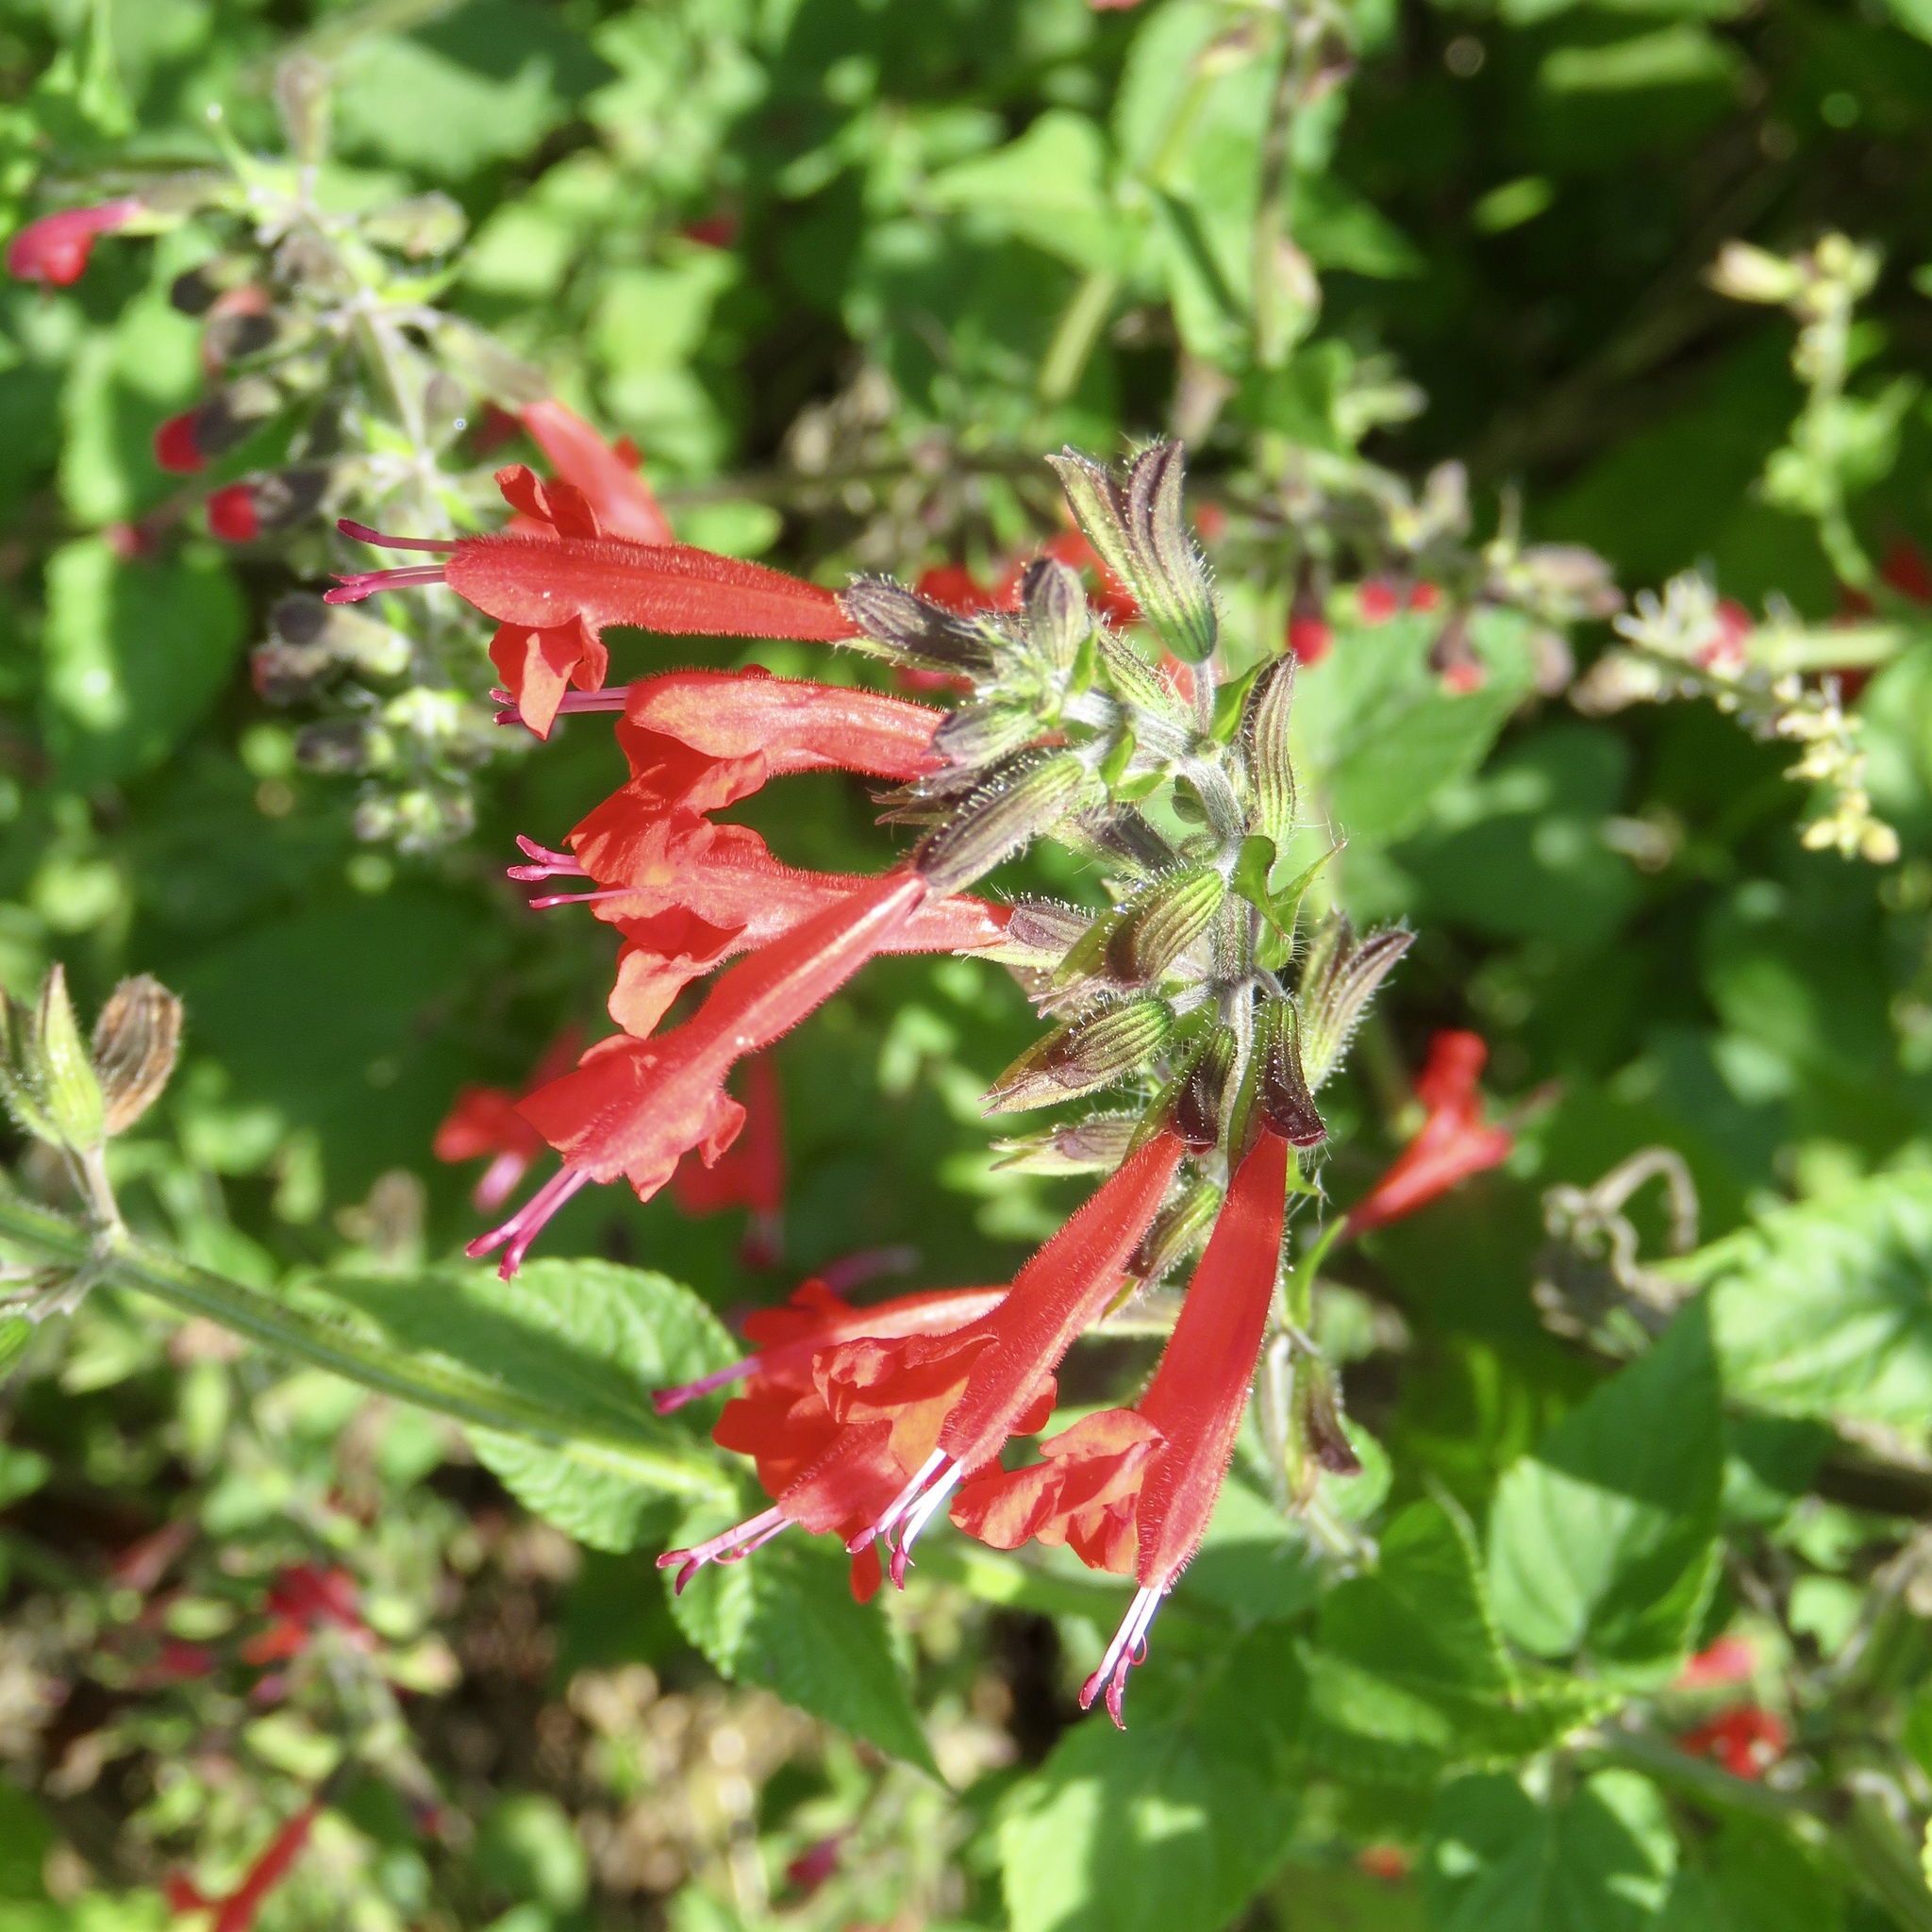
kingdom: Plantae
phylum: Tracheophyta
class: Magnoliopsida
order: Lamiales
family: Lamiaceae
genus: Salvia
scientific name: Salvia coccinea
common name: Blood sage
